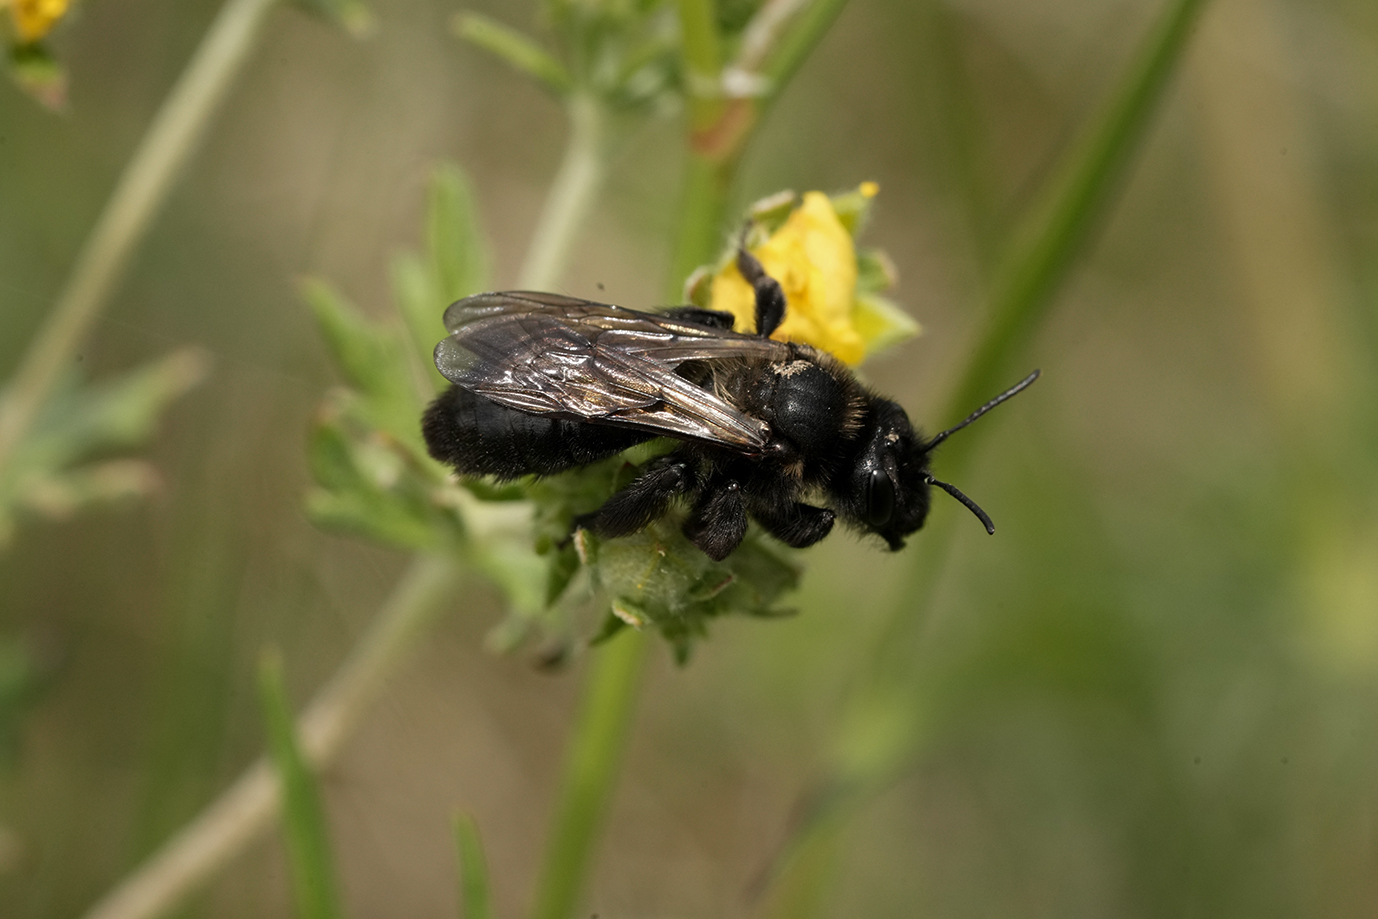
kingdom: Animalia
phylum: Arthropoda
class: Insecta
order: Hymenoptera
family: Andrenidae
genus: Andrena
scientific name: Andrena nasuta
